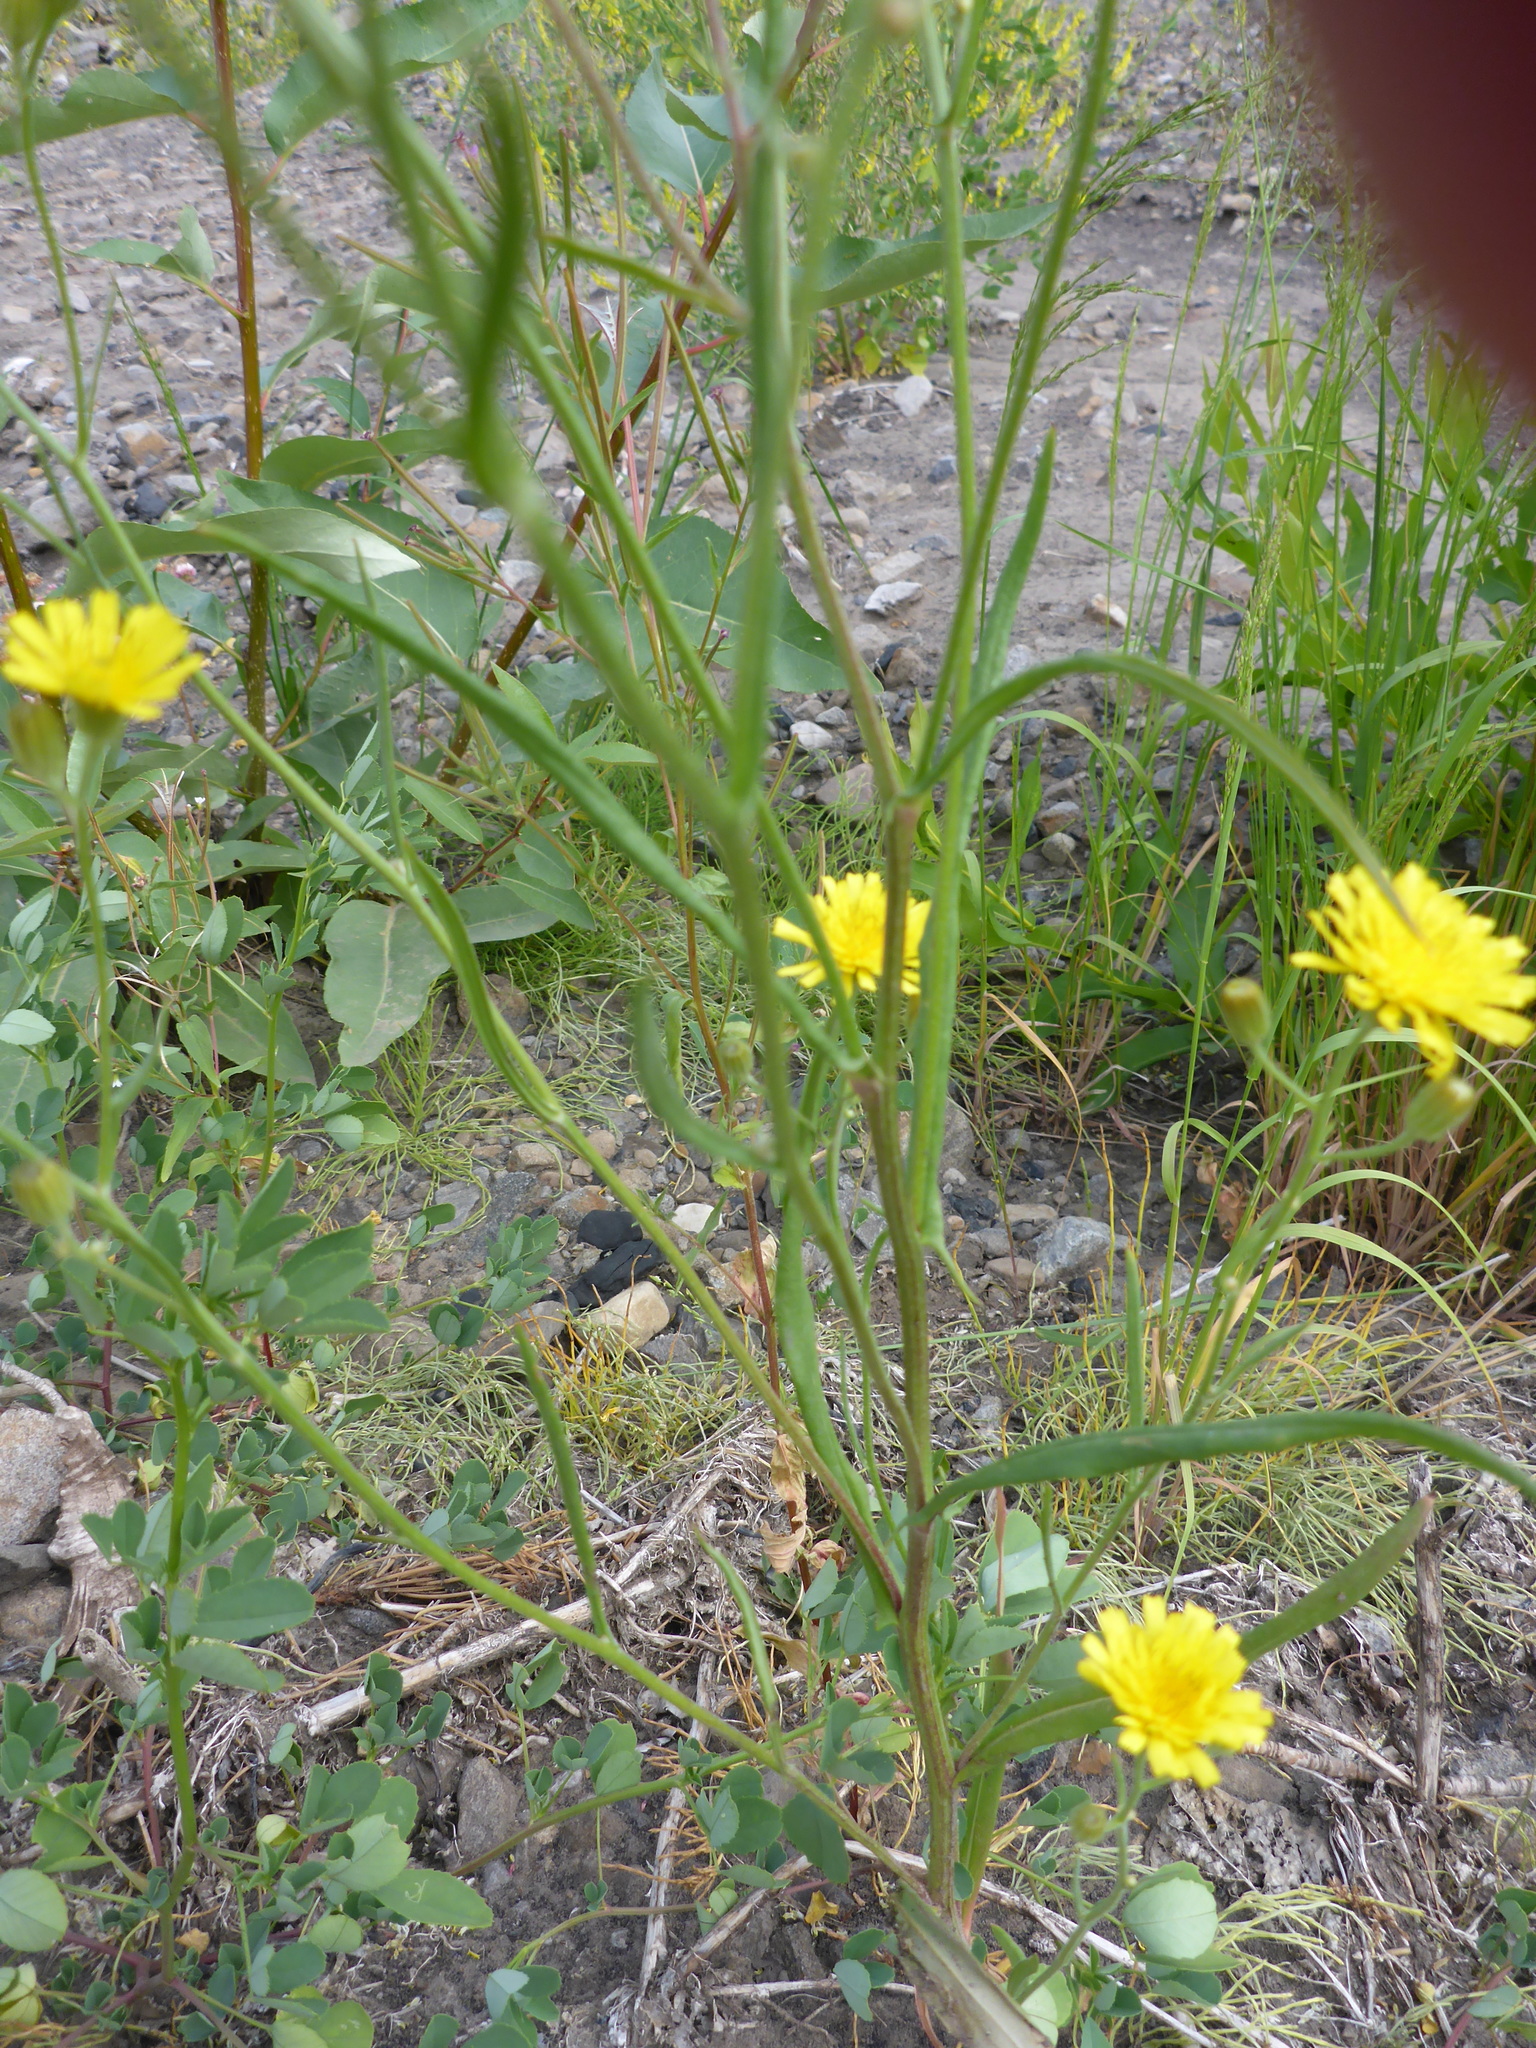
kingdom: Plantae
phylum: Tracheophyta
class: Magnoliopsida
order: Asterales
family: Asteraceae
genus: Crepis
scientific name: Crepis tectorum
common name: Narrow-leaved hawk's-beard
